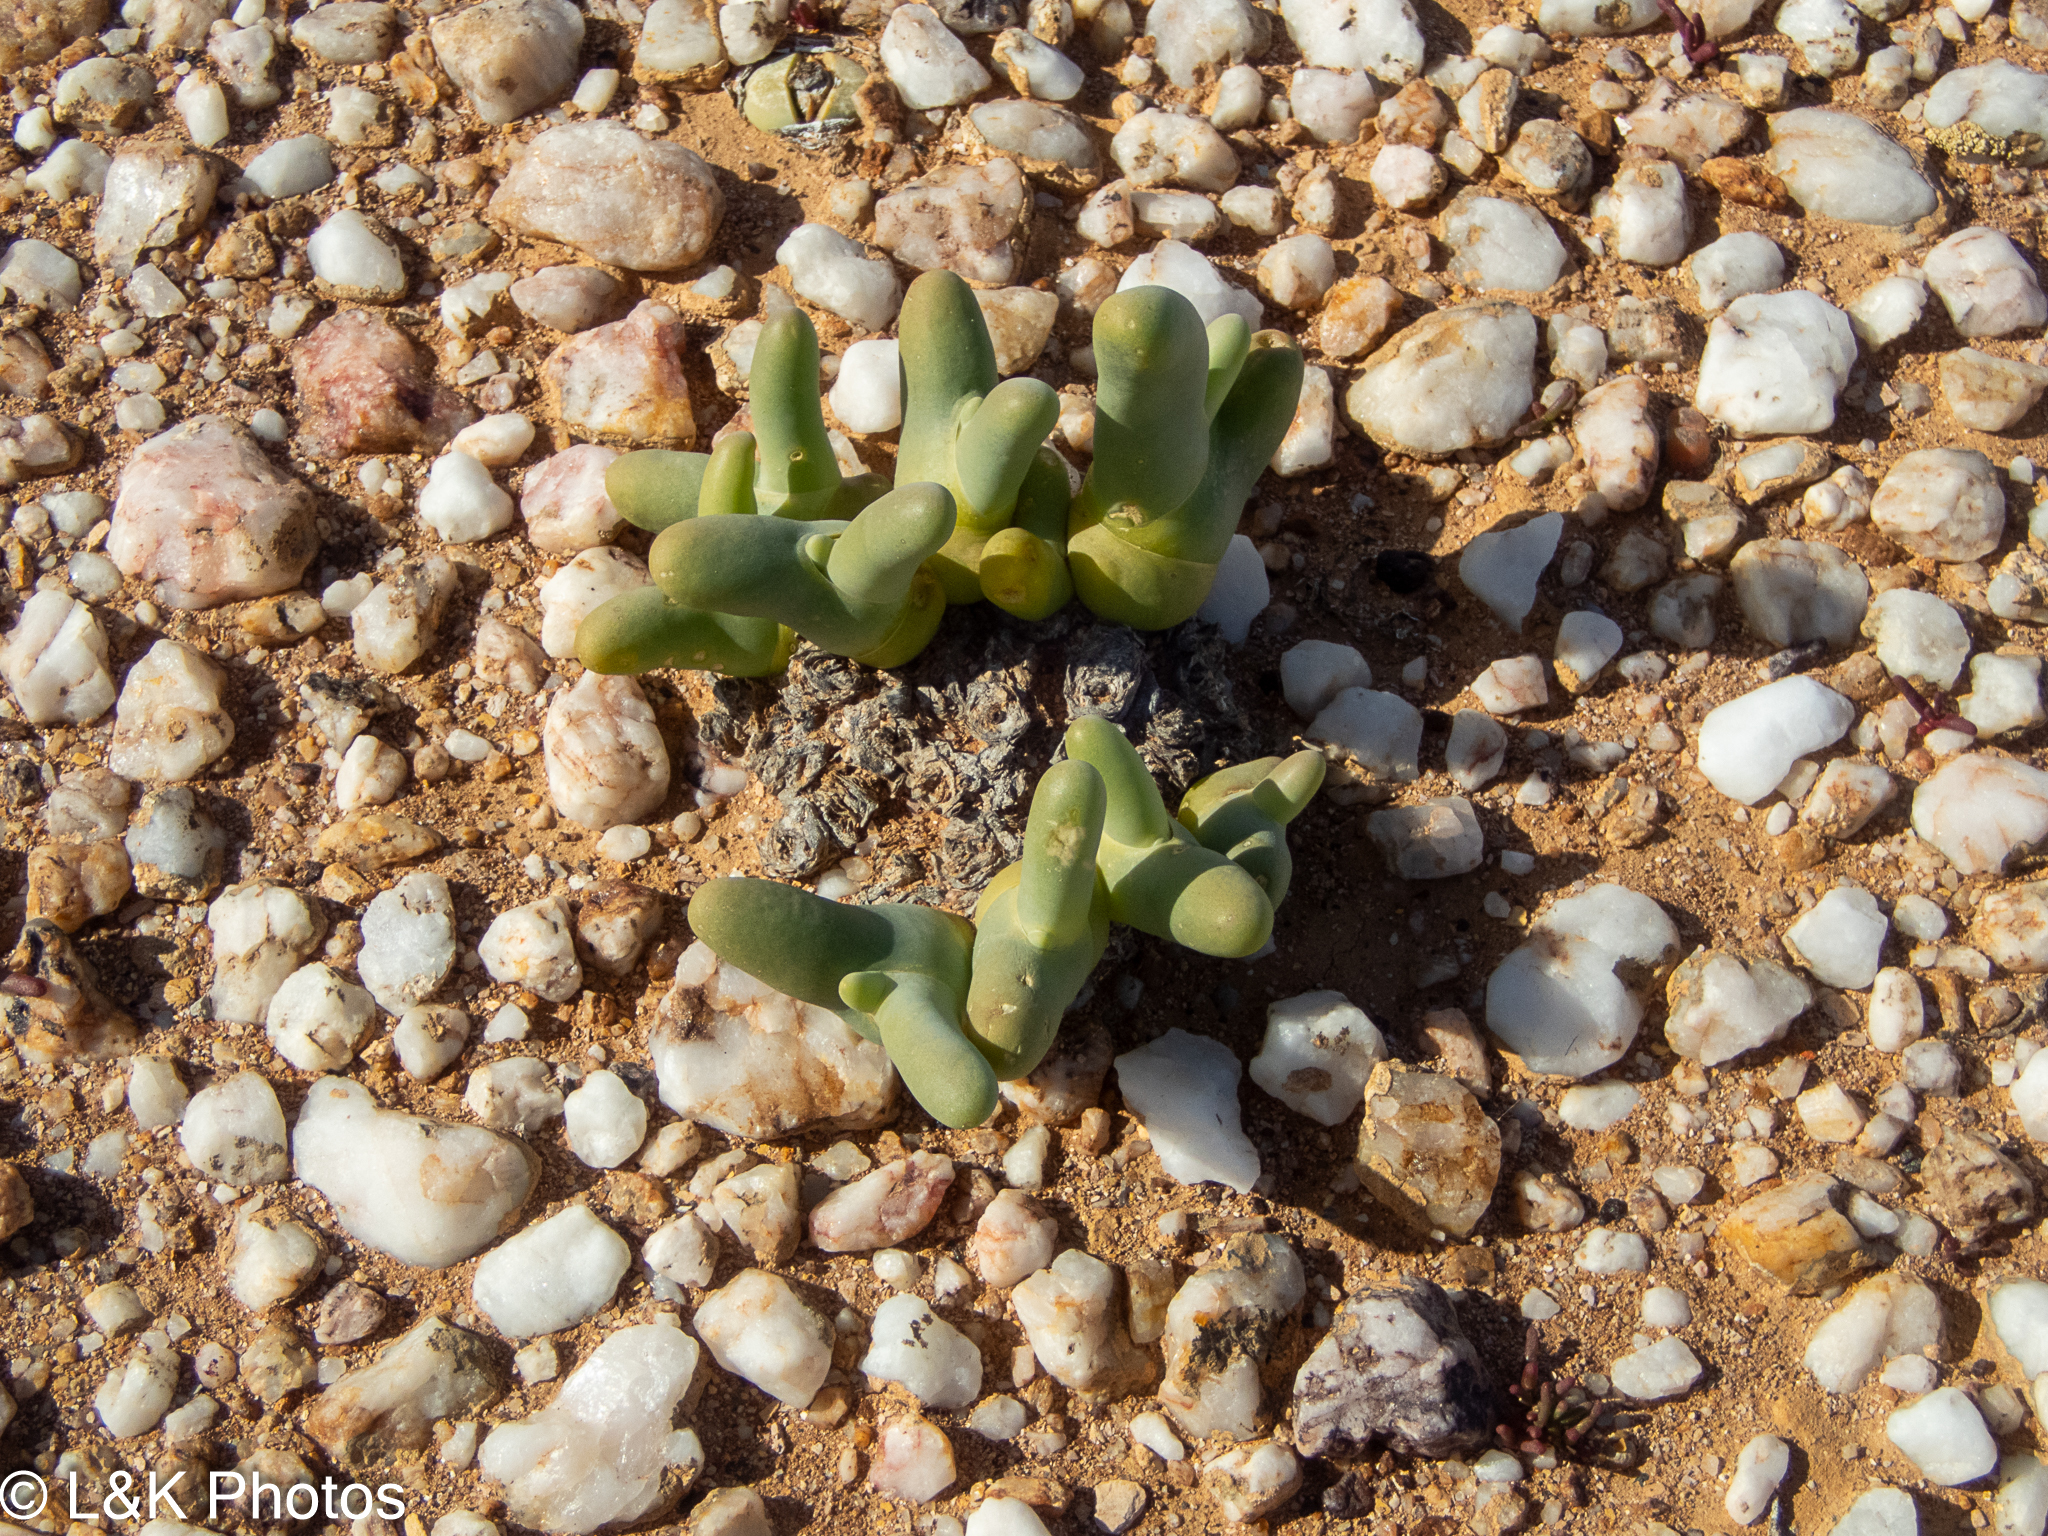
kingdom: Plantae
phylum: Tracheophyta
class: Magnoliopsida
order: Caryophyllales
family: Aizoaceae
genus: Mesembryanthemum
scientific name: Mesembryanthemum digitatum
